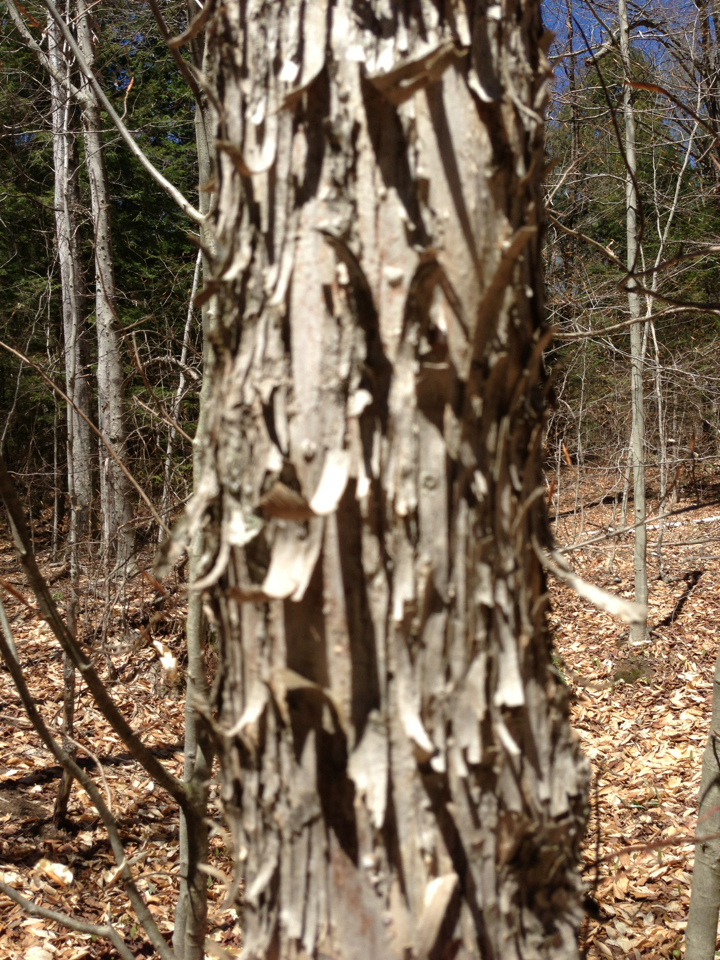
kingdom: Plantae
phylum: Tracheophyta
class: Magnoliopsida
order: Fagales
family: Betulaceae
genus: Ostrya
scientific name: Ostrya virginiana
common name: Ironwood
